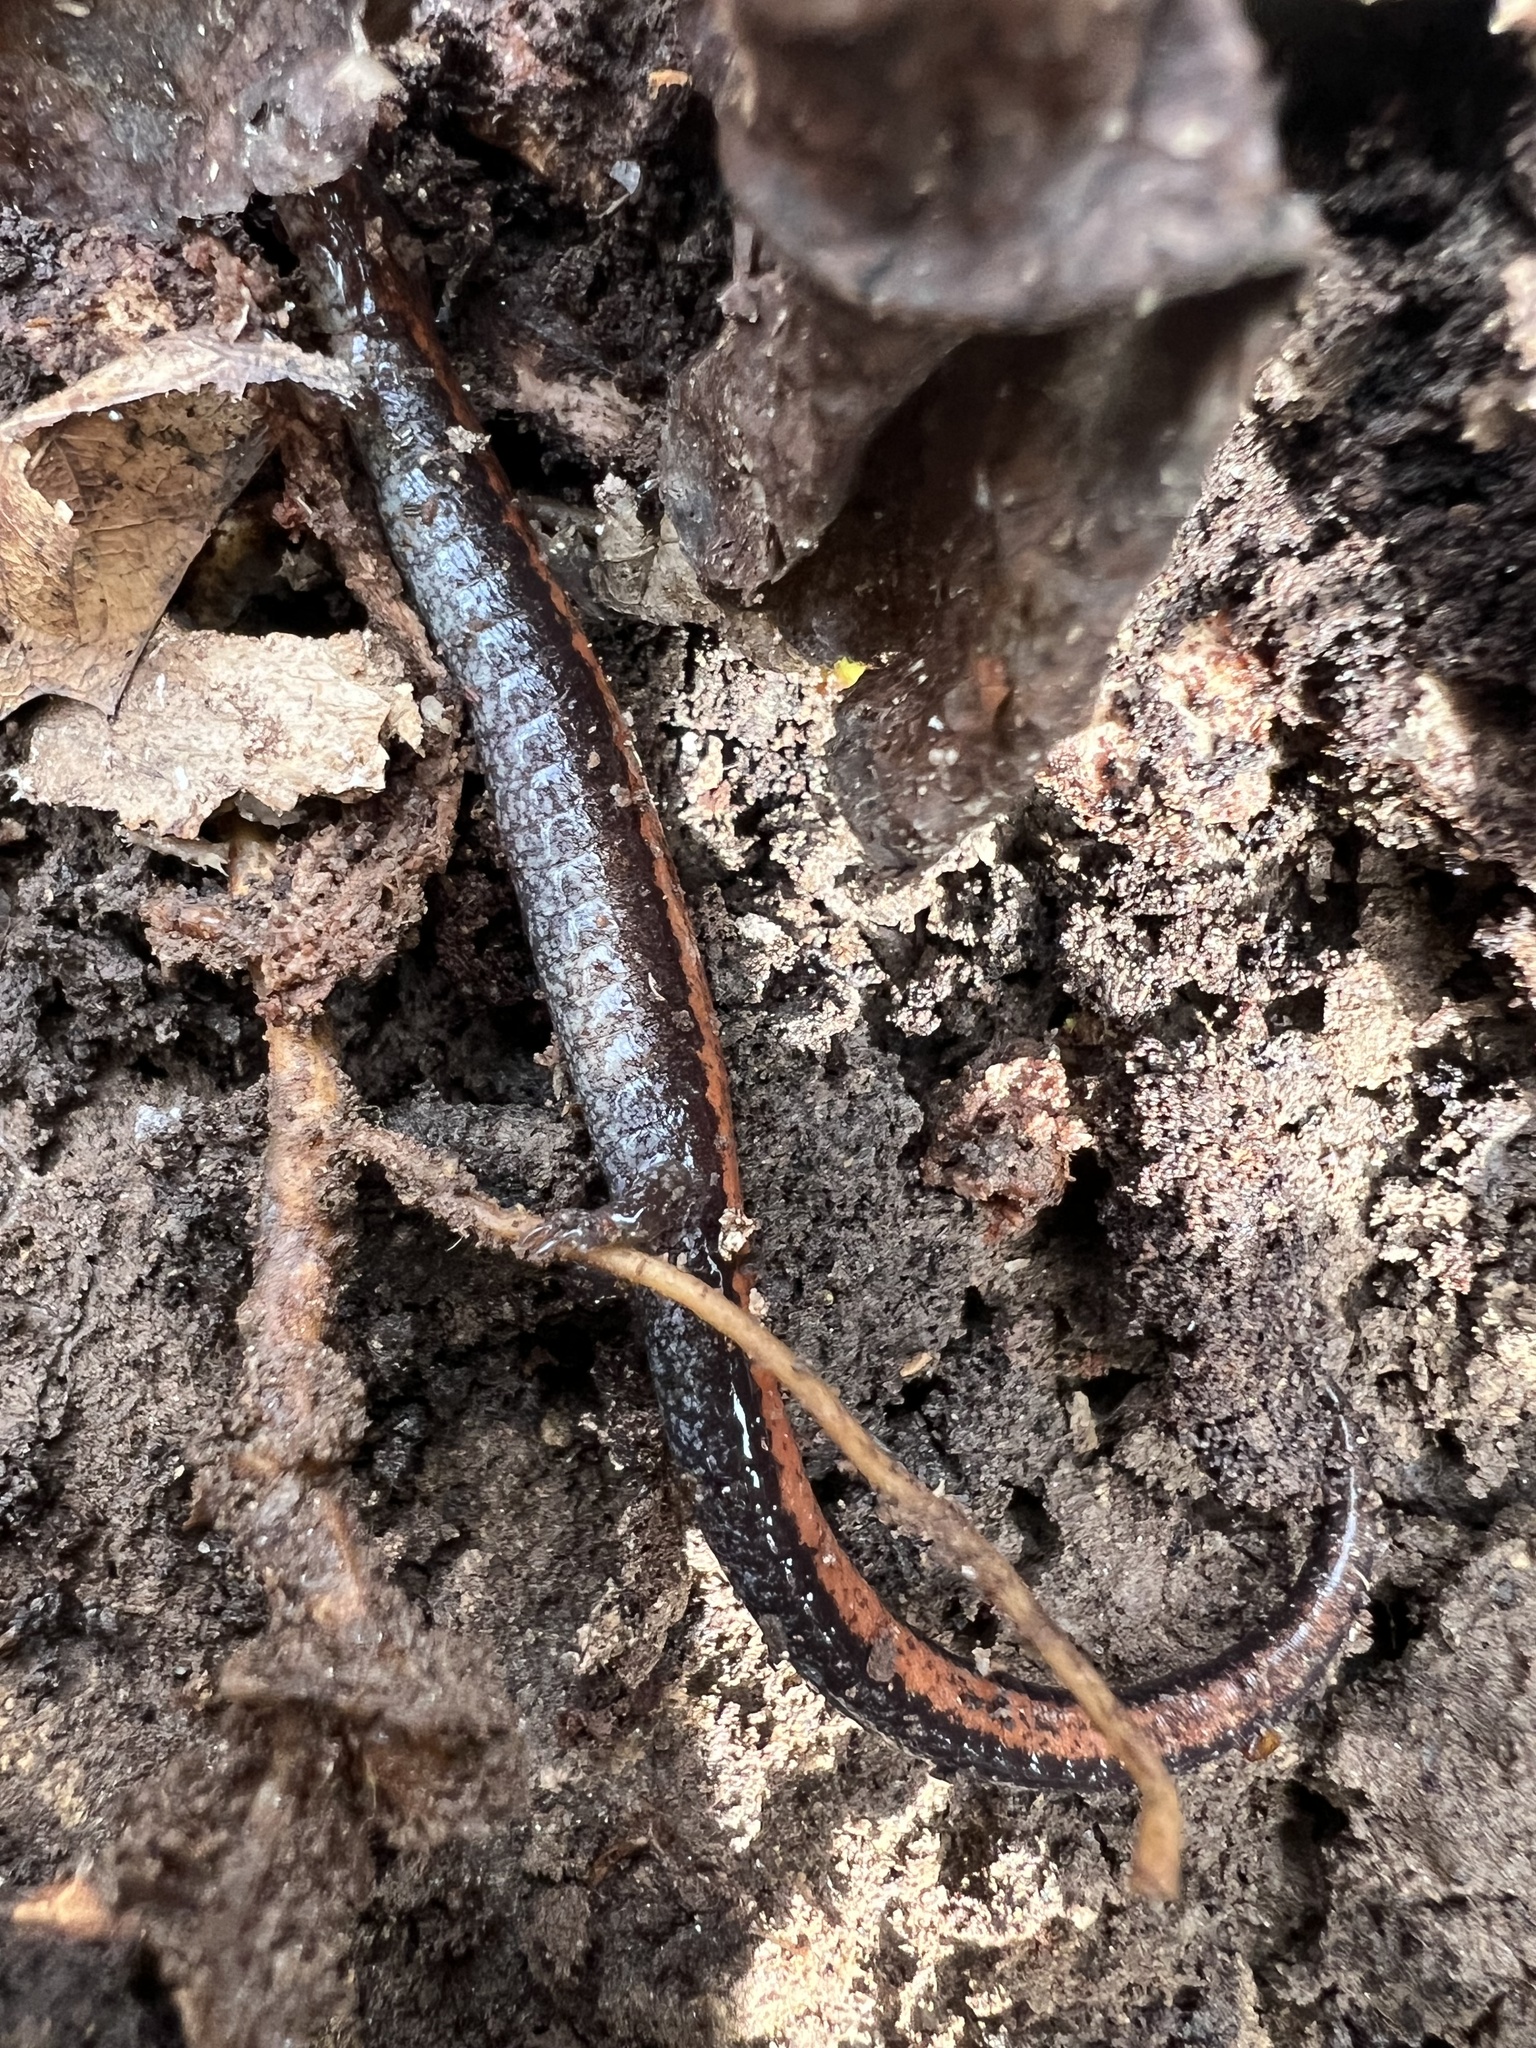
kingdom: Animalia
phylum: Chordata
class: Amphibia
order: Caudata
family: Plethodontidae
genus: Plethodon
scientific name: Plethodon cinereus
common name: Redback salamander
